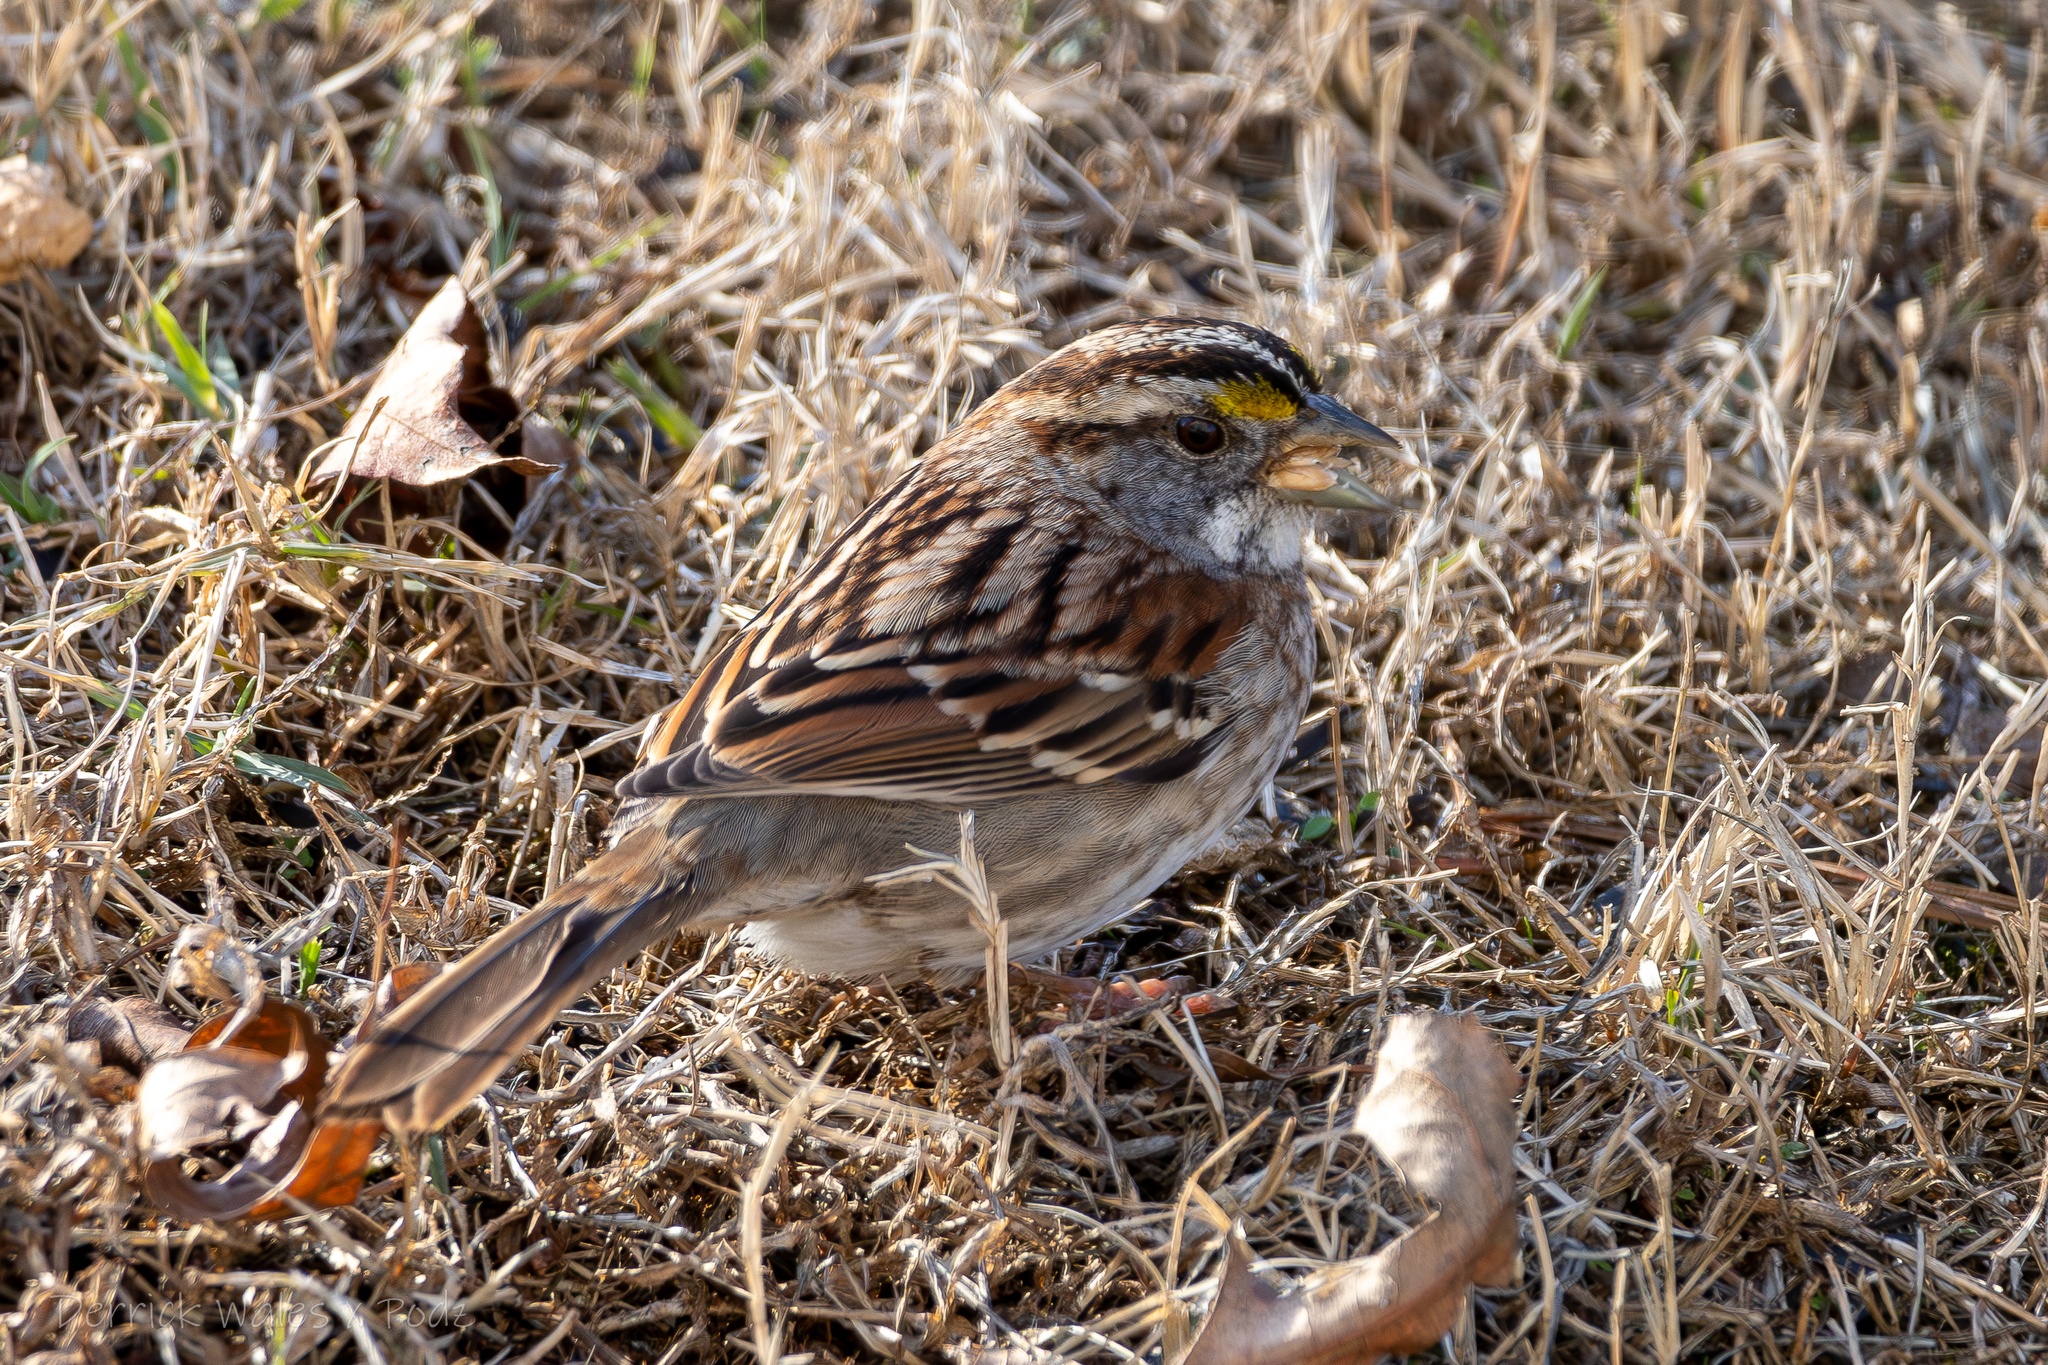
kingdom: Animalia
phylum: Chordata
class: Aves
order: Passeriformes
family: Passerellidae
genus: Zonotrichia
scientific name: Zonotrichia albicollis
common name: White-throated sparrow
